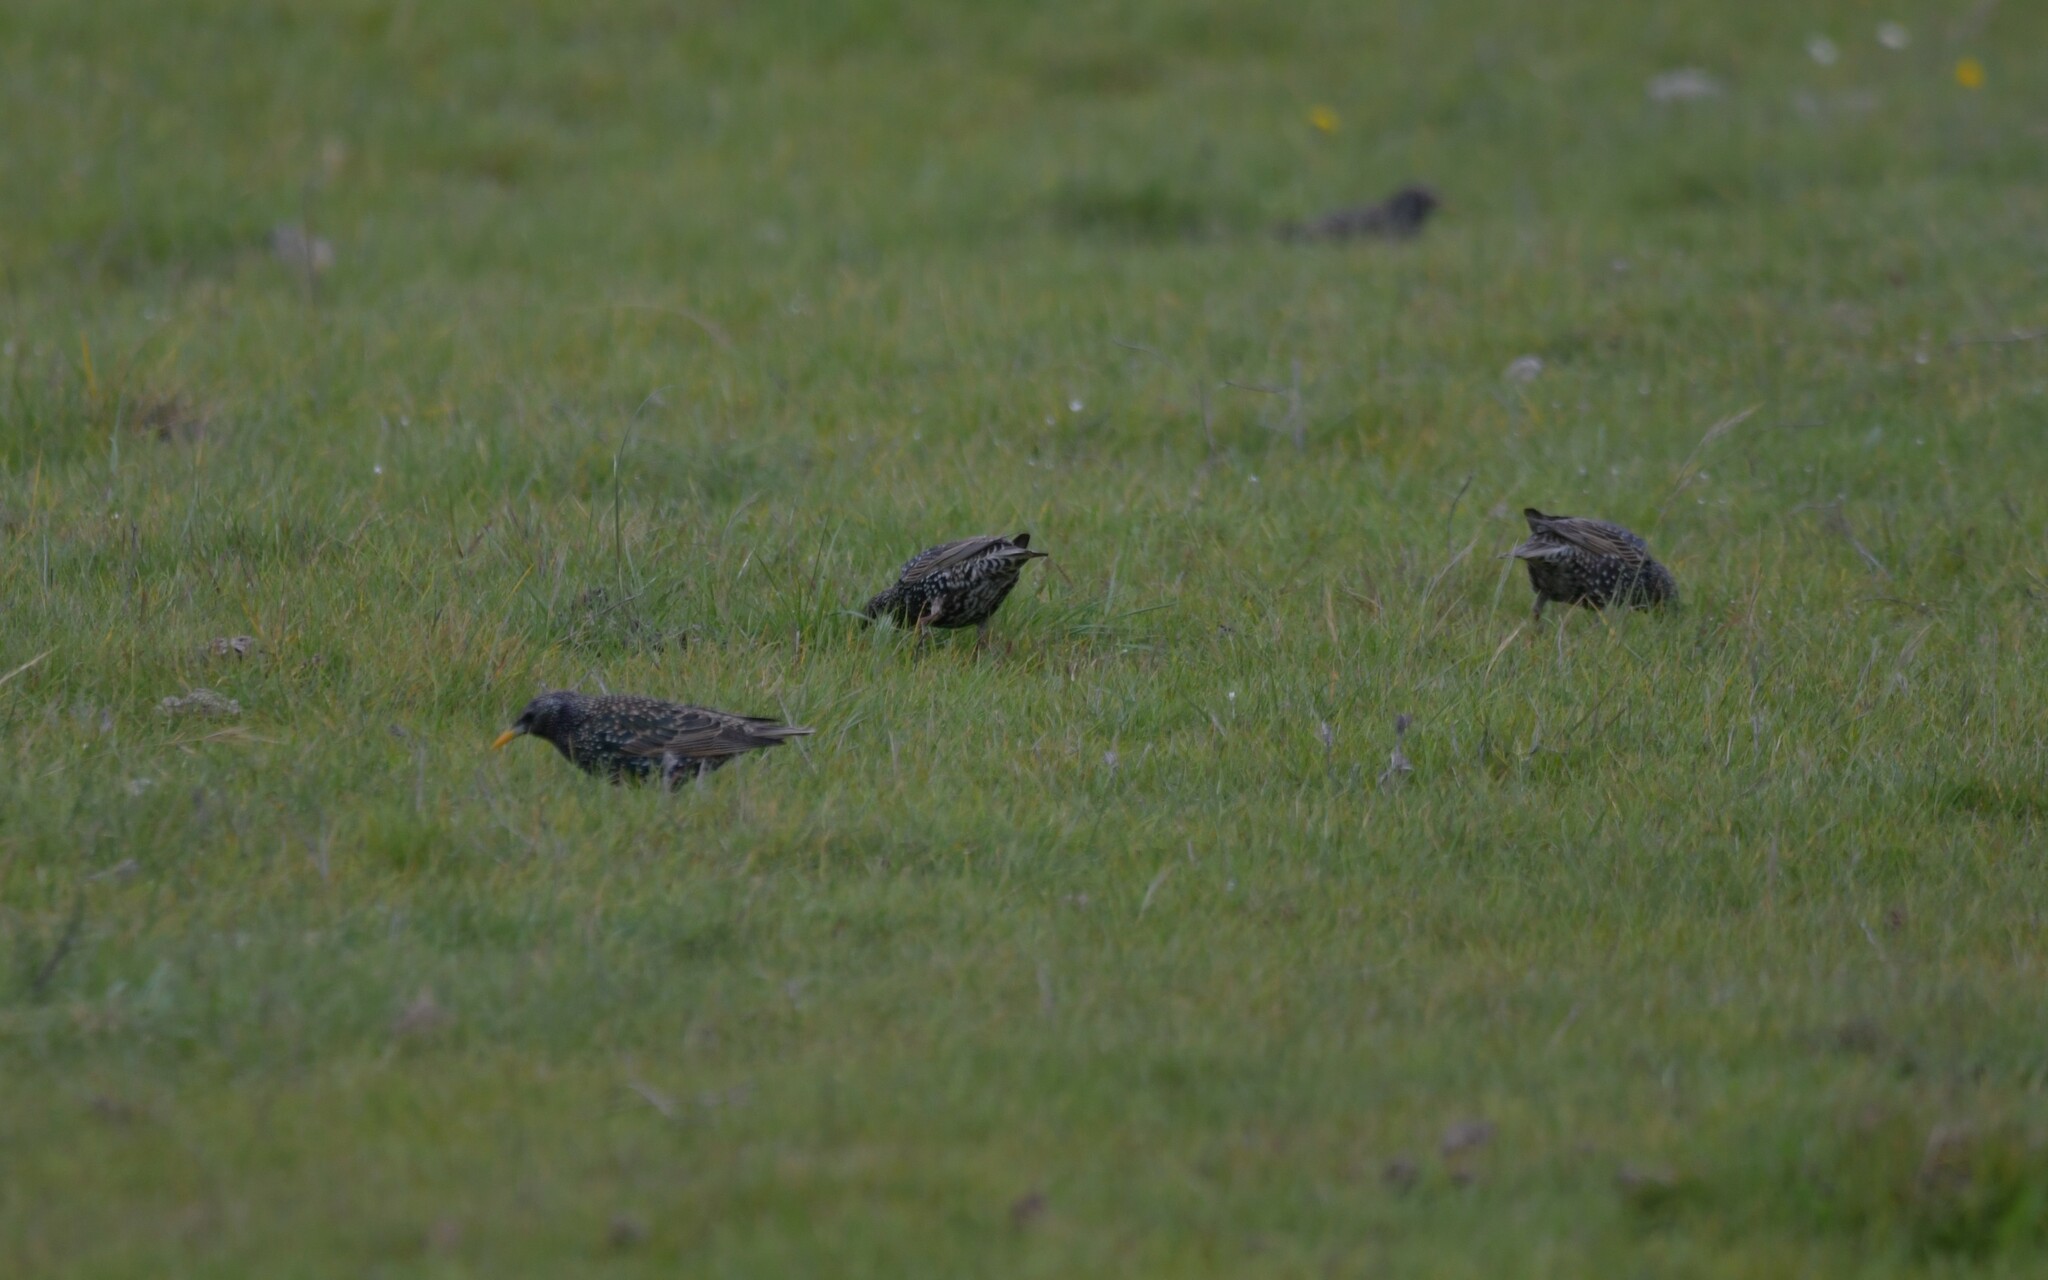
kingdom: Animalia
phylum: Chordata
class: Aves
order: Passeriformes
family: Sturnidae
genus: Sturnus
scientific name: Sturnus vulgaris
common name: Common starling
